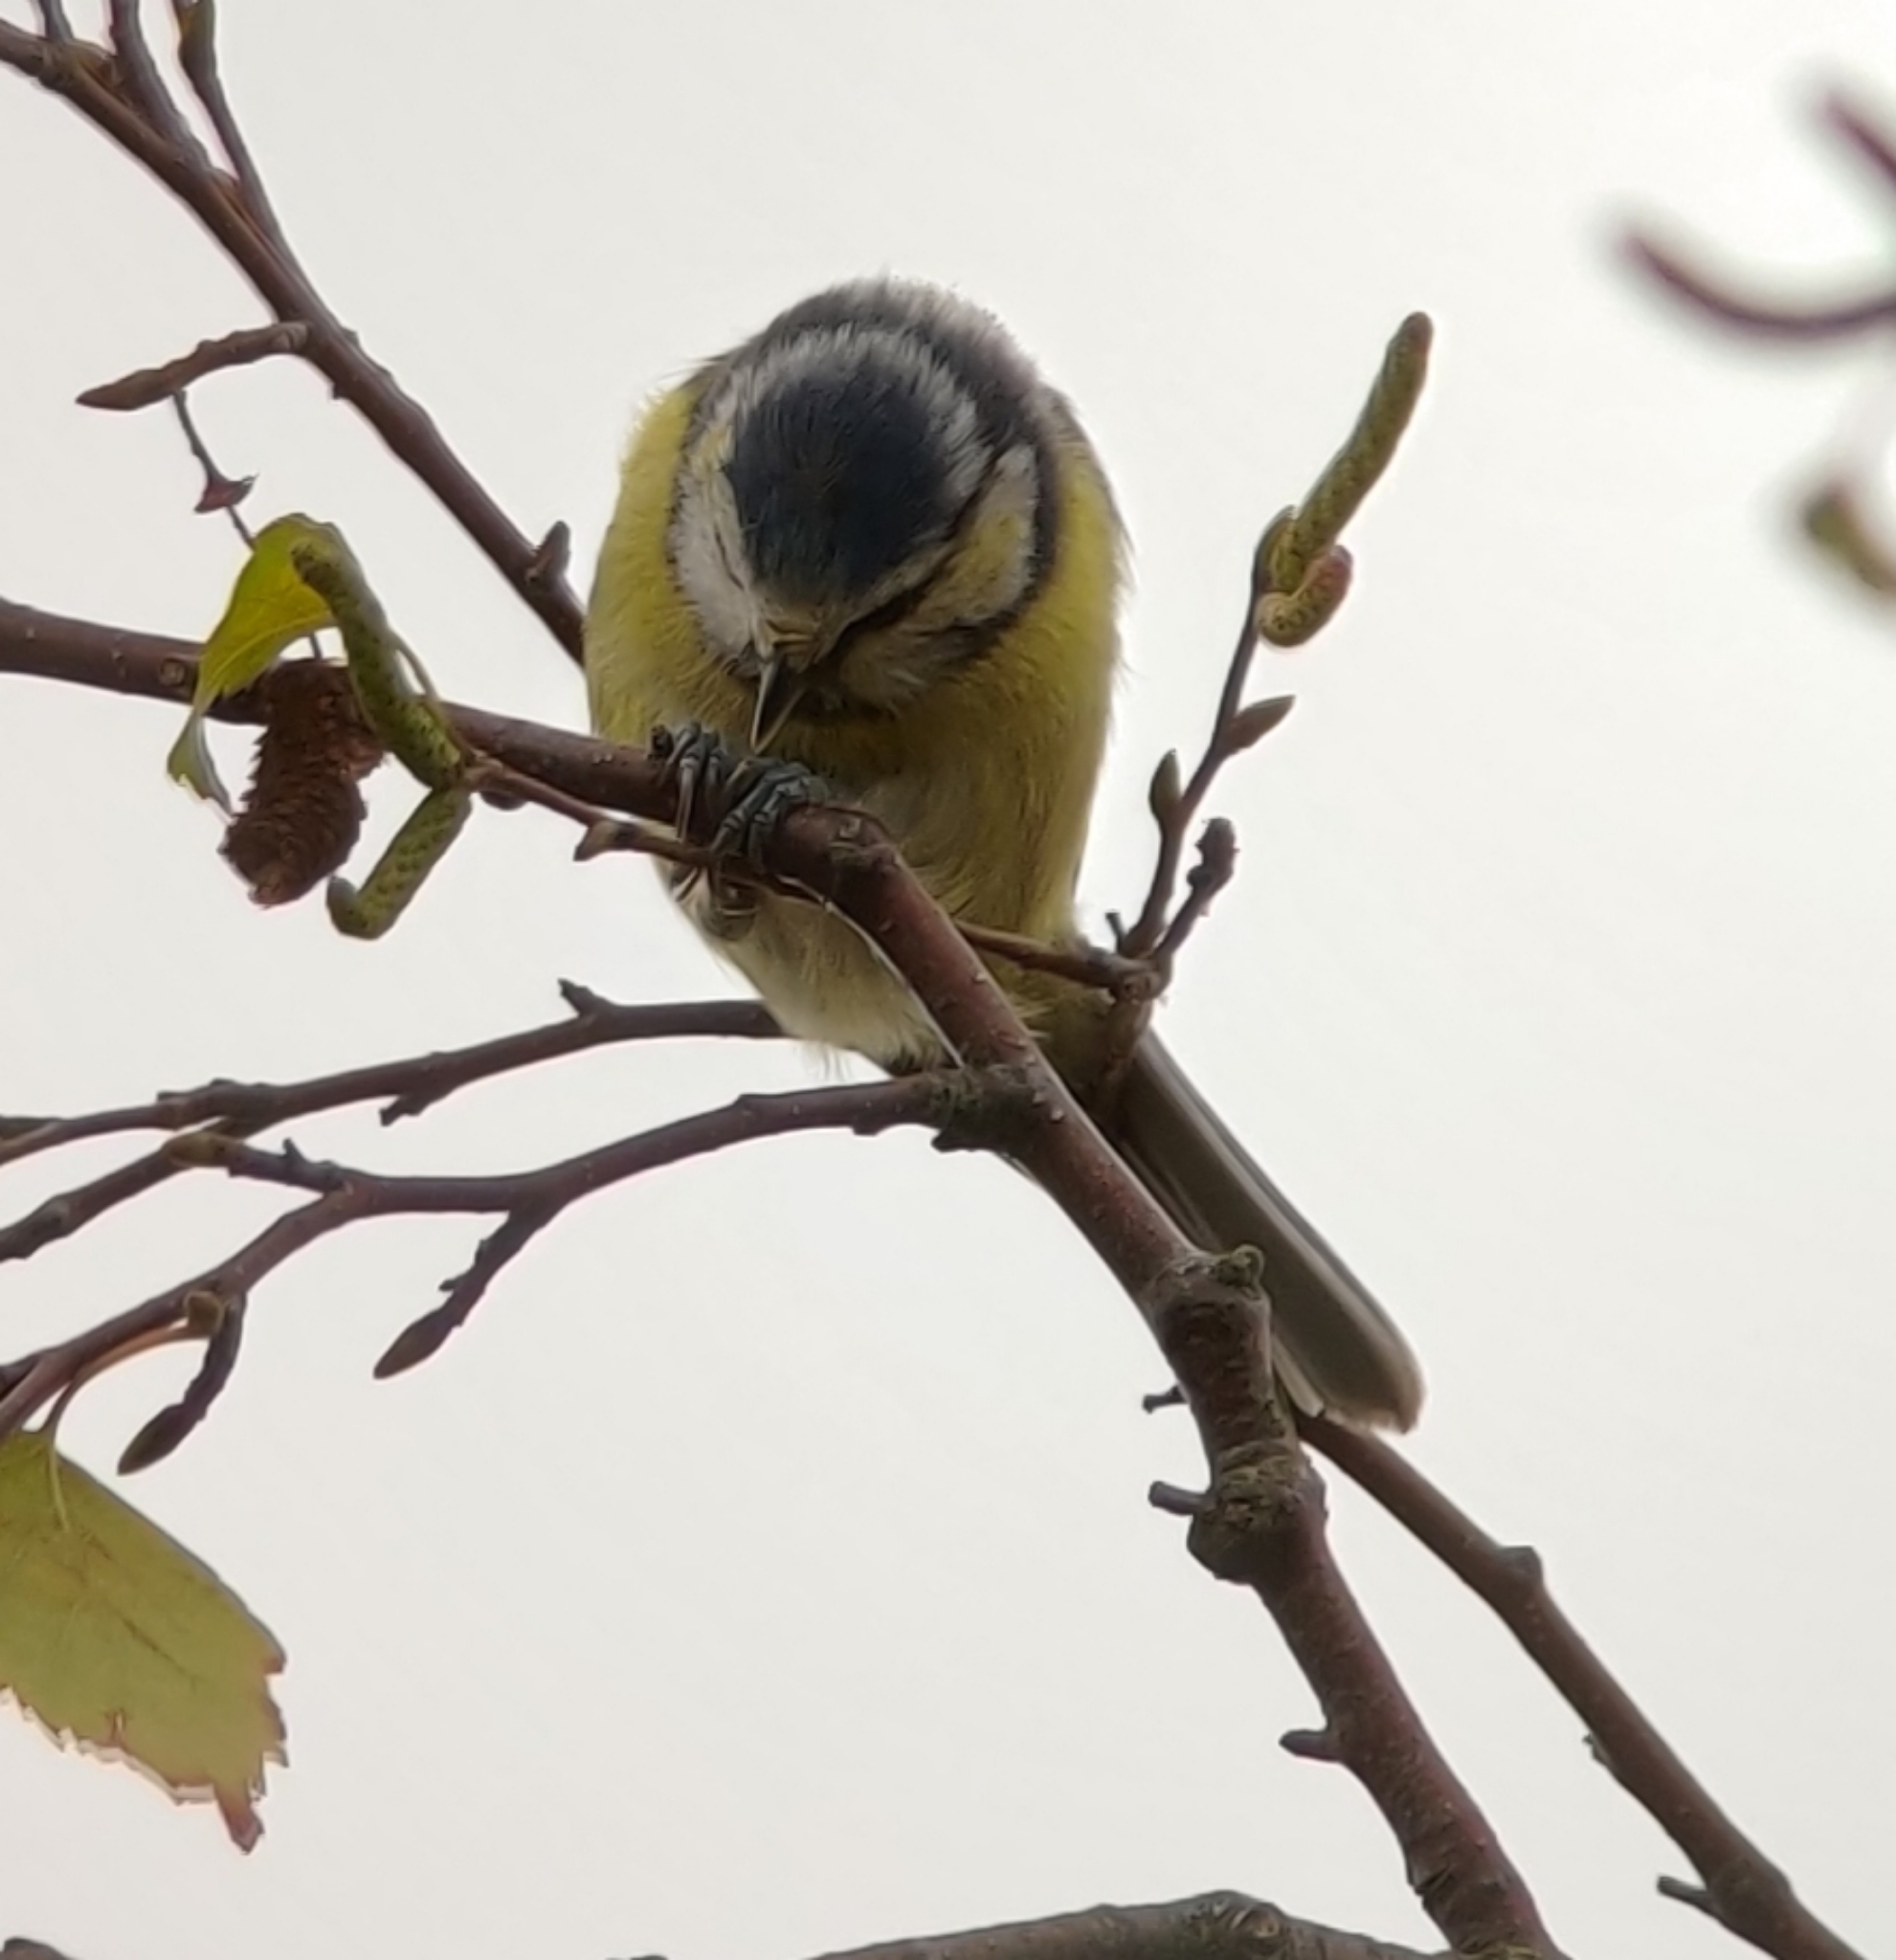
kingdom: Animalia
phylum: Chordata
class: Aves
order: Passeriformes
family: Paridae
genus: Cyanistes
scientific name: Cyanistes caeruleus
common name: Eurasian blue tit
